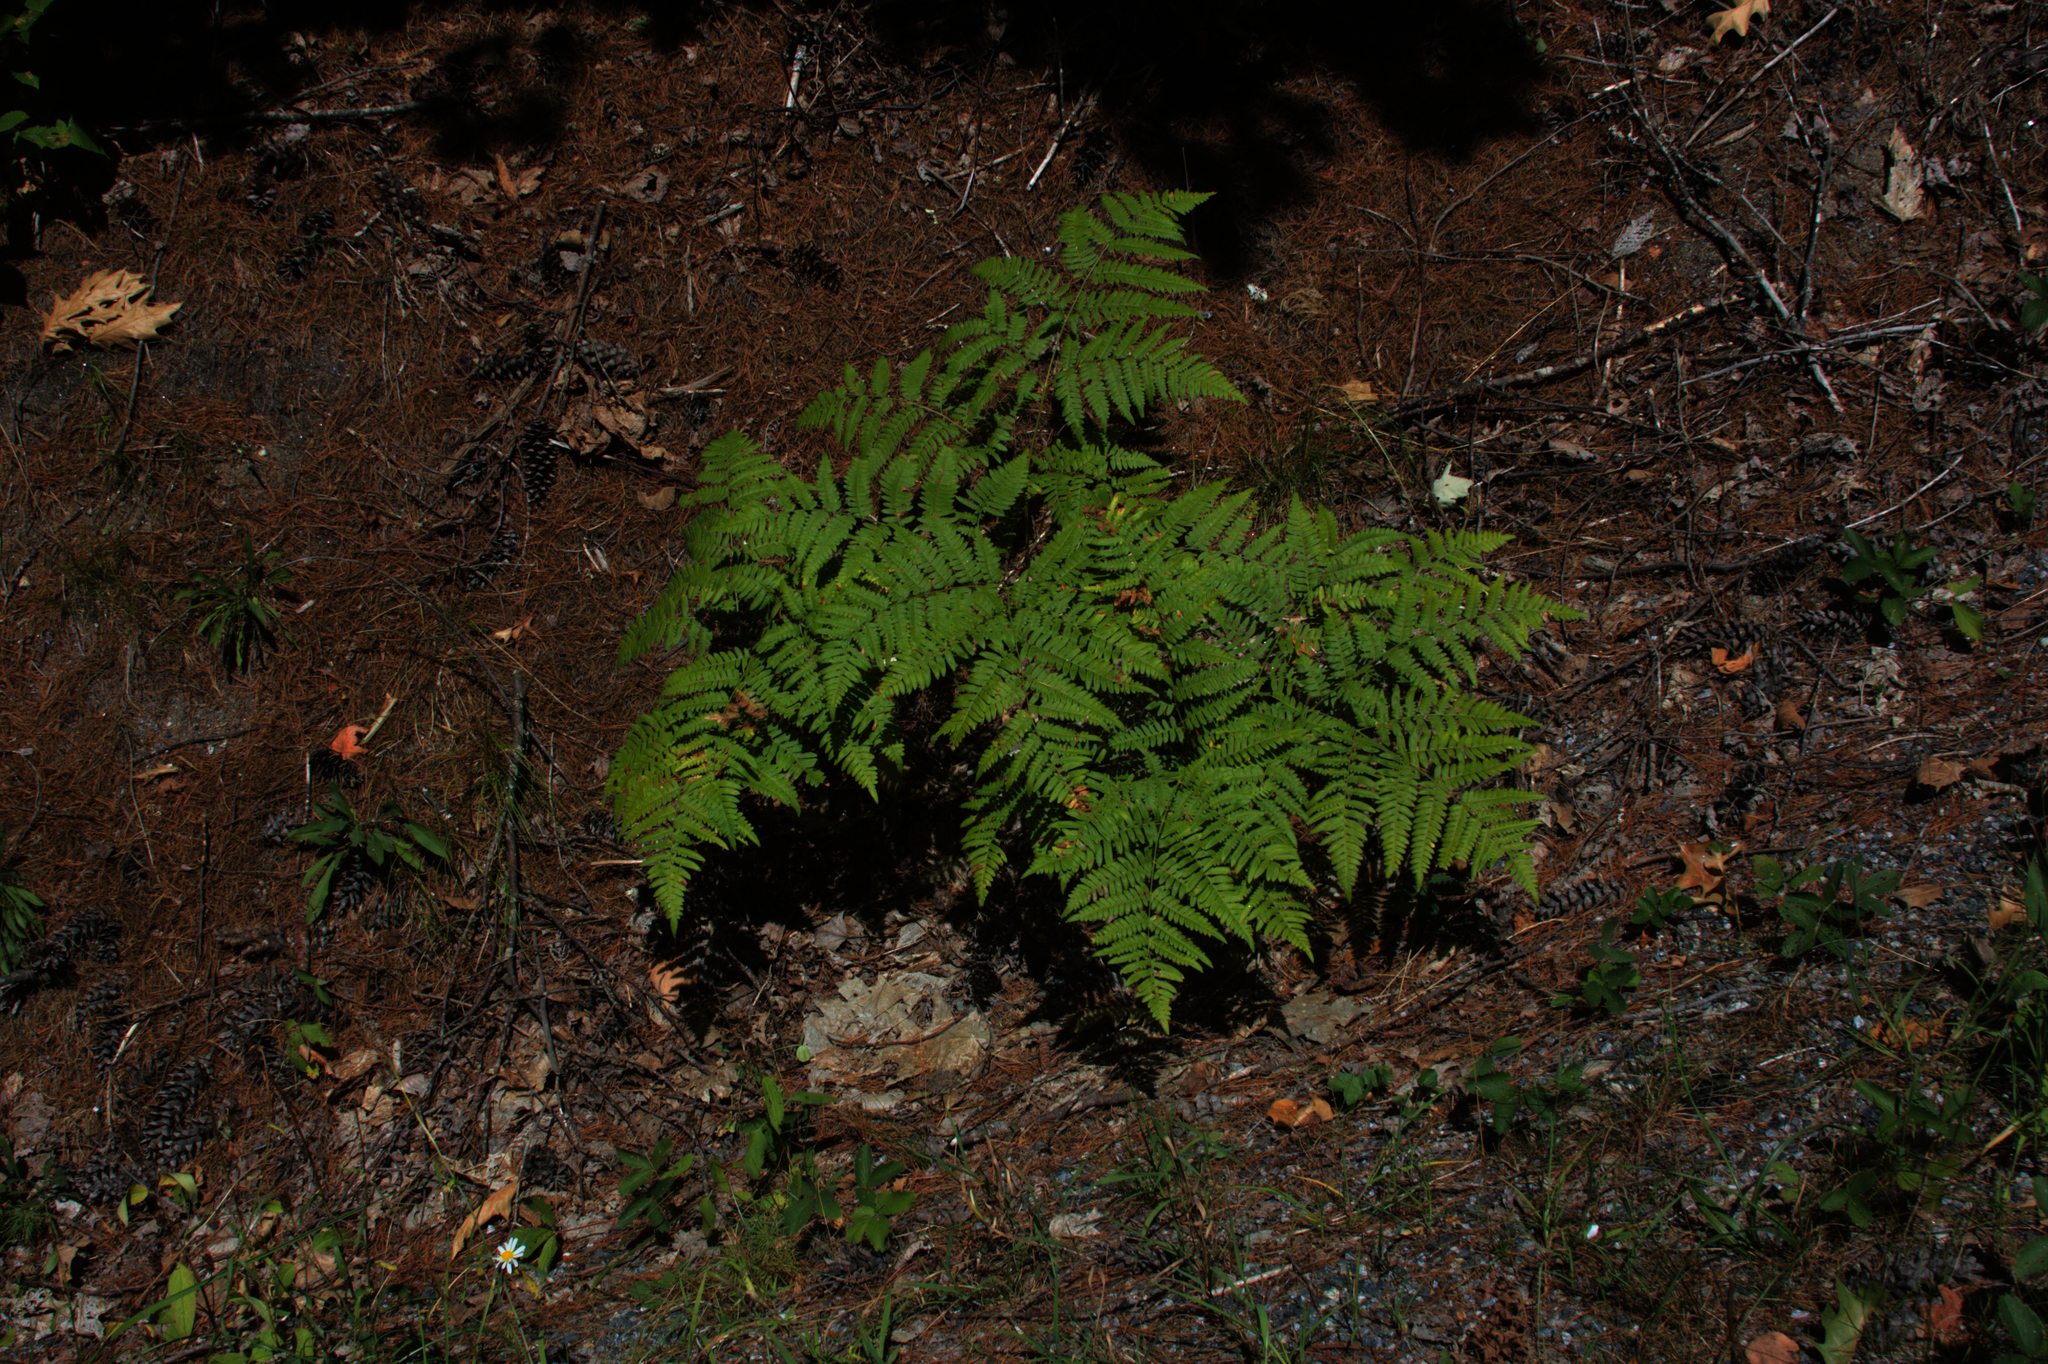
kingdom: Plantae
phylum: Tracheophyta
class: Polypodiopsida
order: Polypodiales
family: Dennstaedtiaceae
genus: Pteridium
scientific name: Pteridium aquilinum
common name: Bracken
